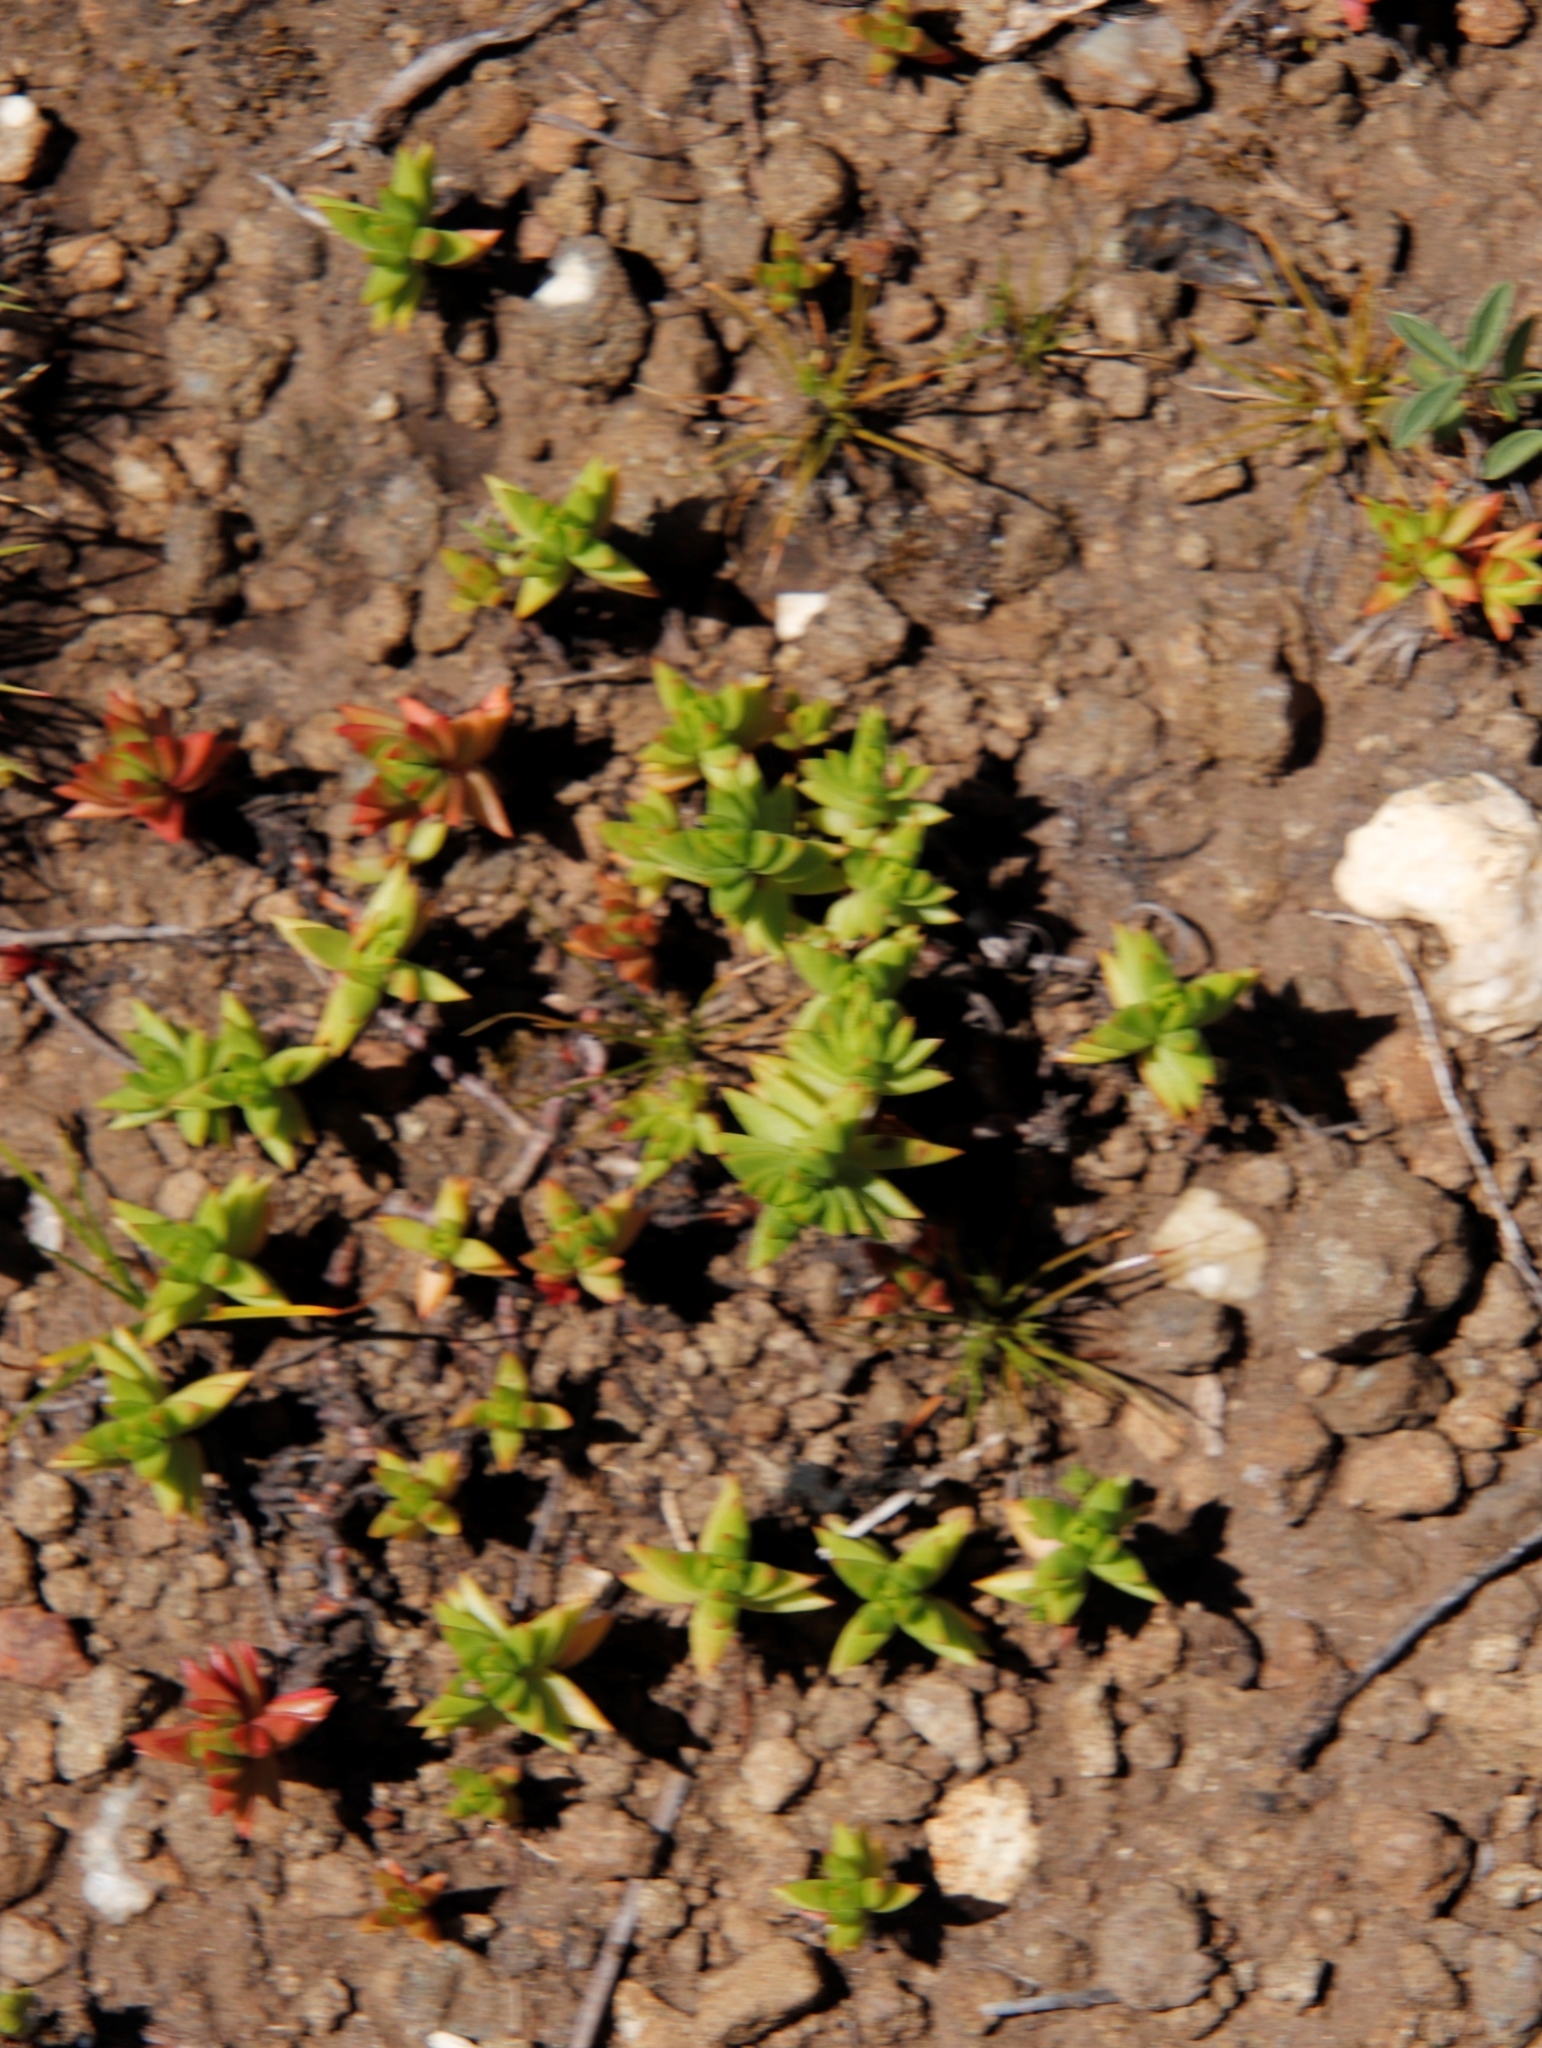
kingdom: Plantae
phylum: Tracheophyta
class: Magnoliopsida
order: Saxifragales
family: Crassulaceae
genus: Crassula
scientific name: Crassula dependens
